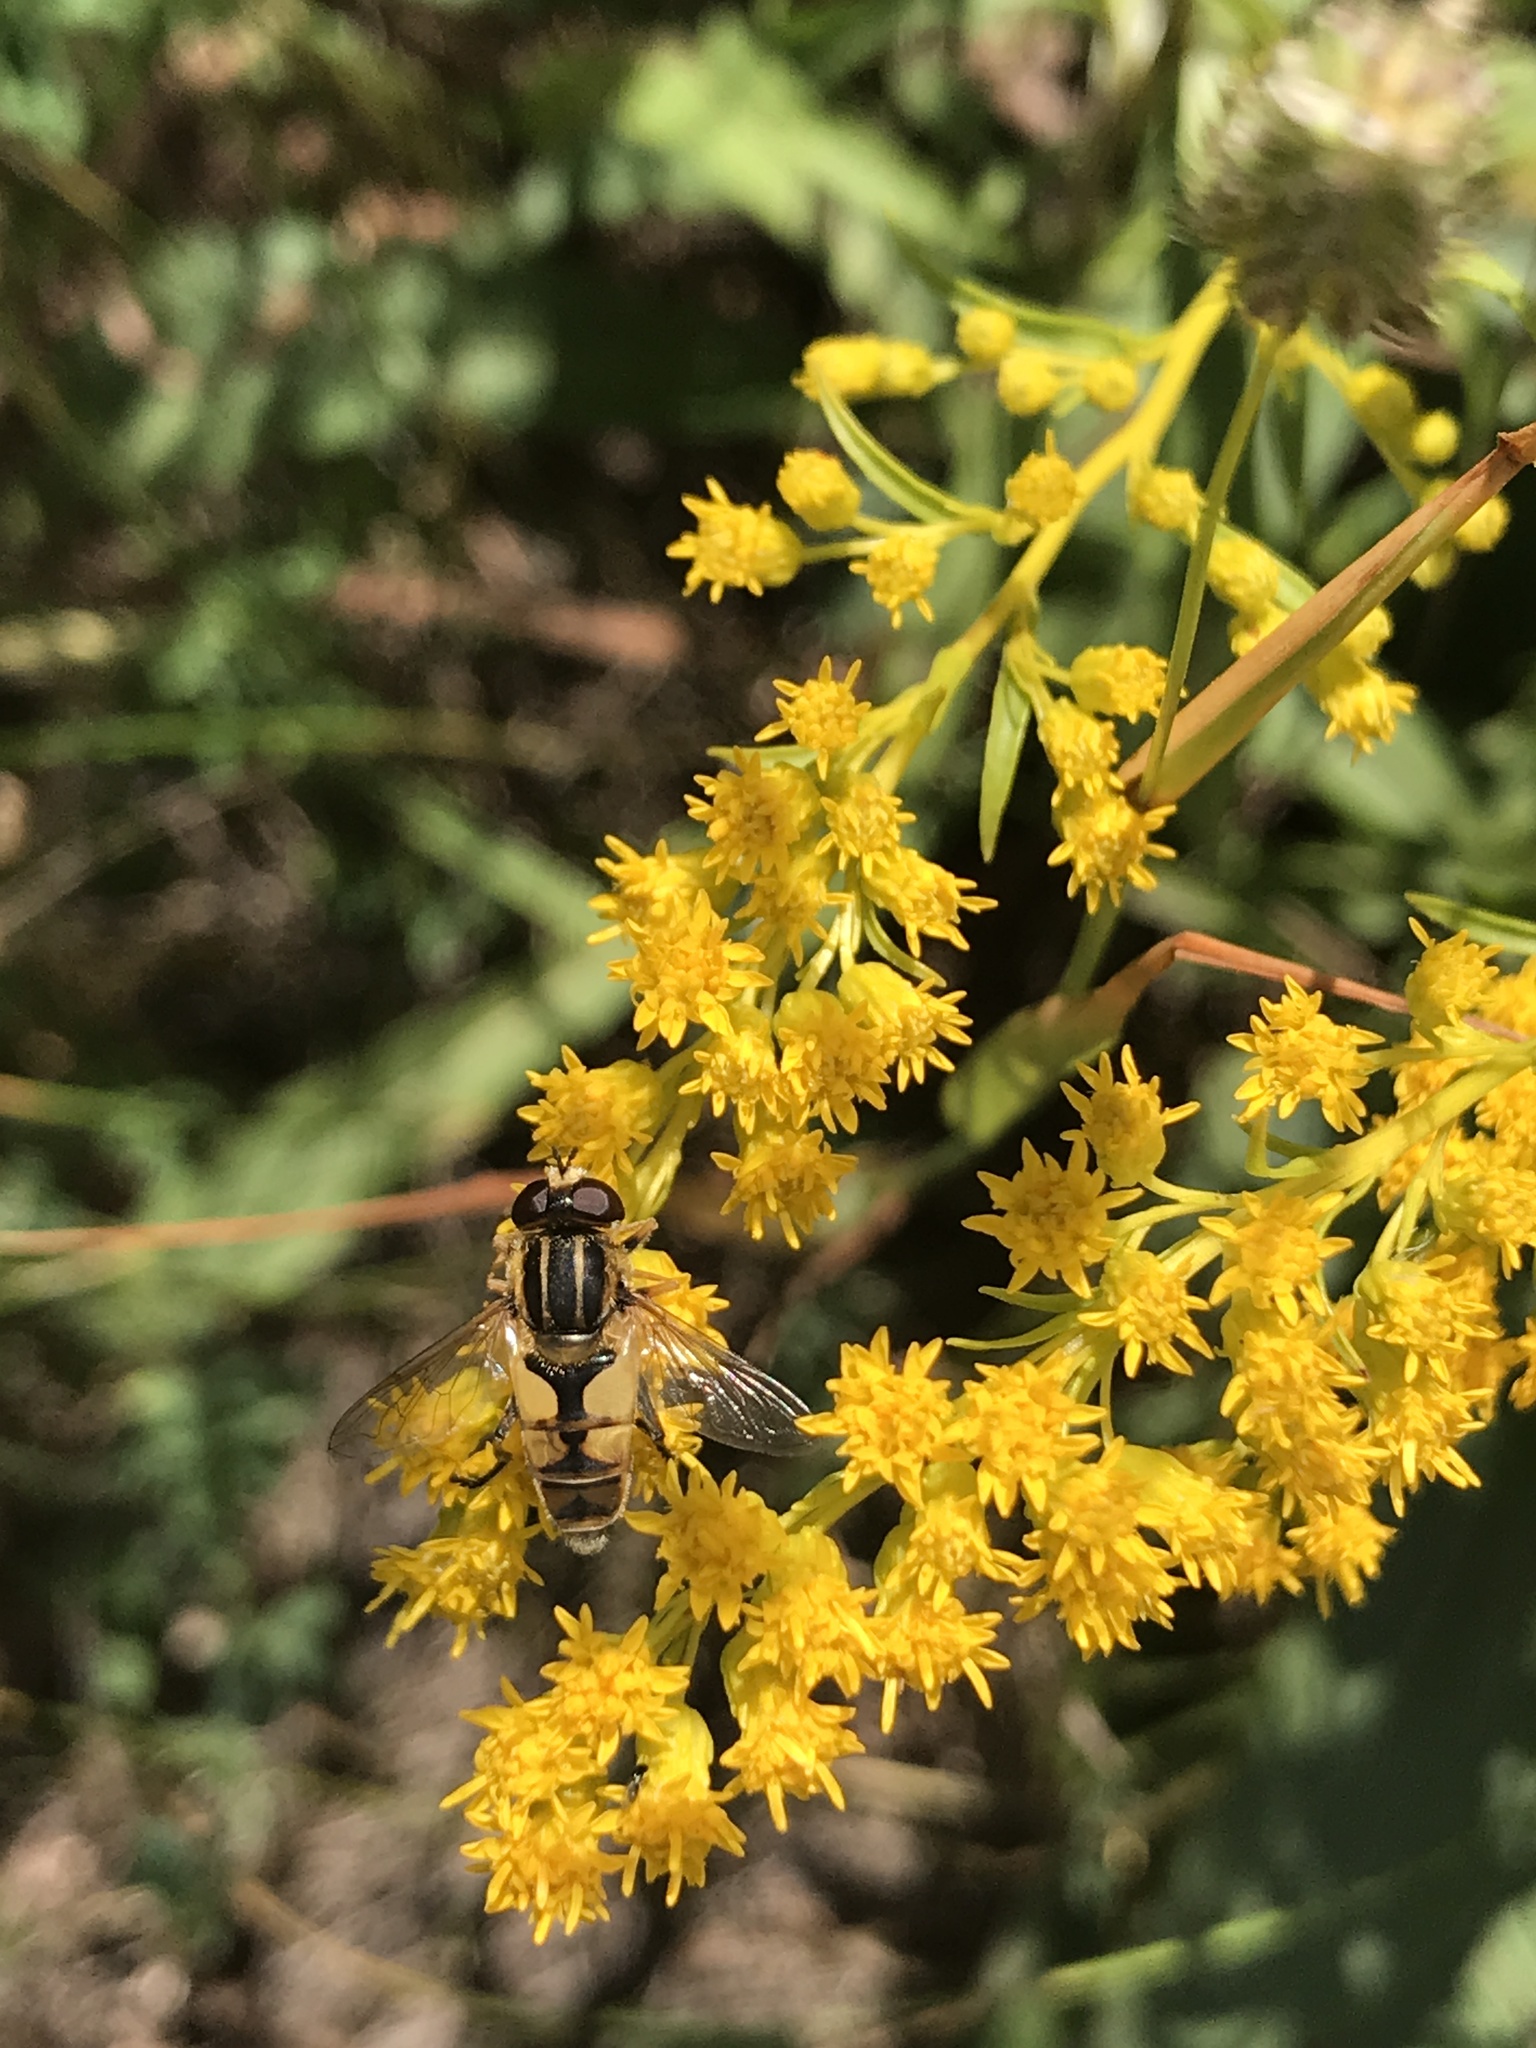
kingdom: Animalia
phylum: Arthropoda
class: Insecta
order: Diptera
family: Syrphidae
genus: Helophilus
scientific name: Helophilus hybridus
